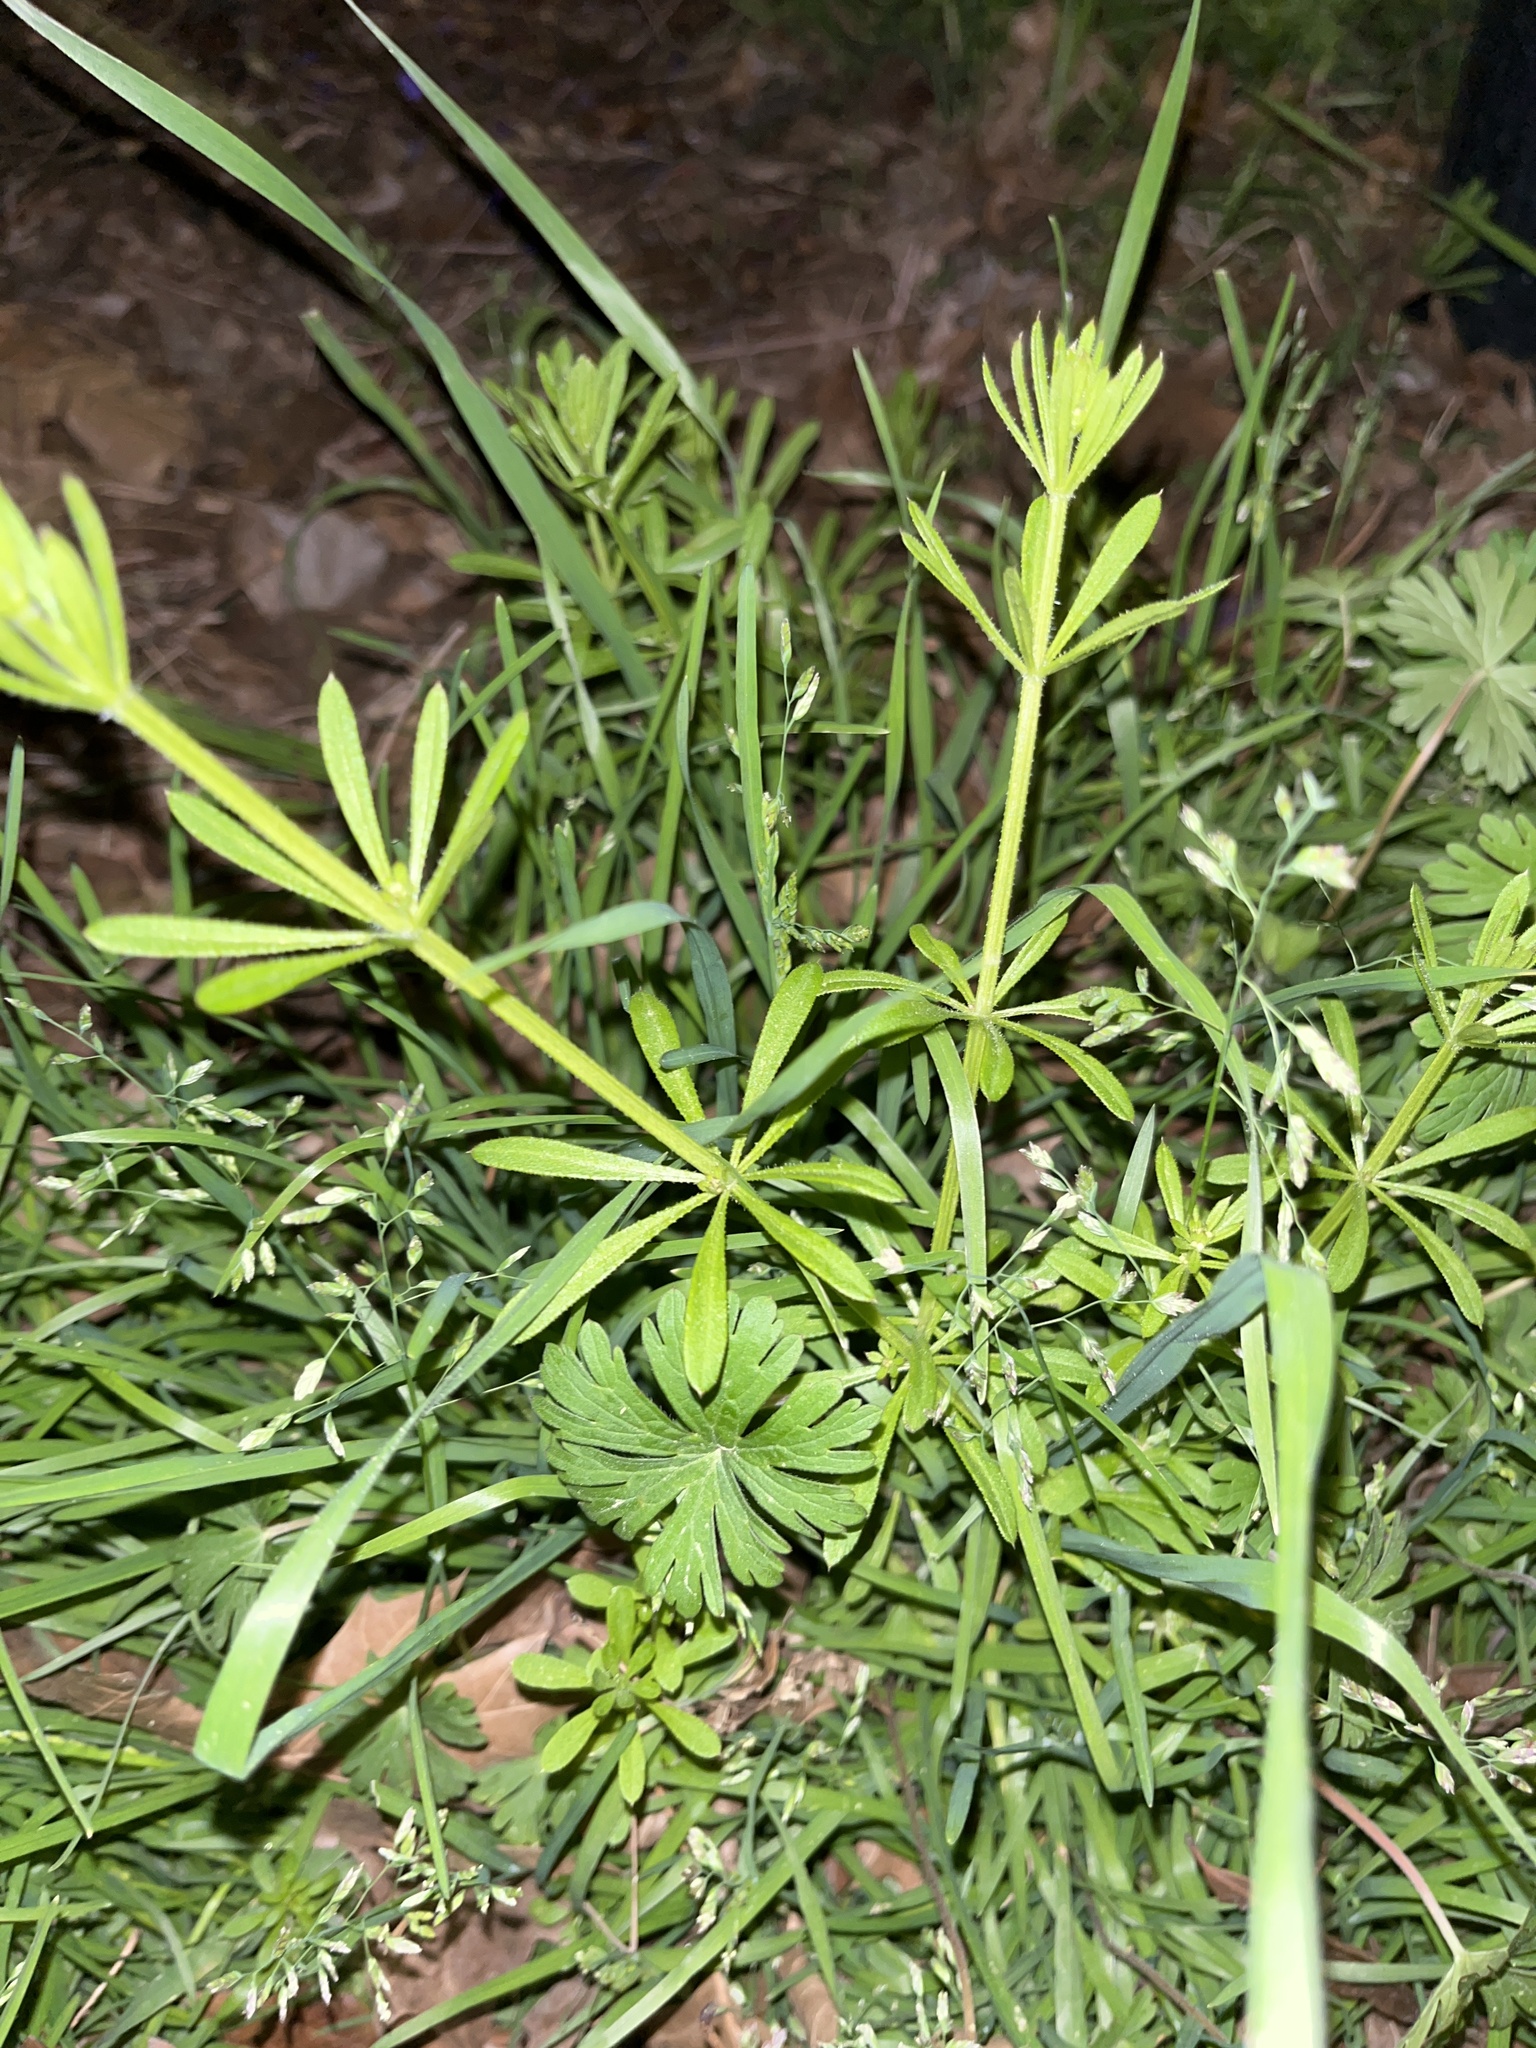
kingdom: Plantae
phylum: Tracheophyta
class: Magnoliopsida
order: Gentianales
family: Rubiaceae
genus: Galium
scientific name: Galium aparine
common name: Cleavers
